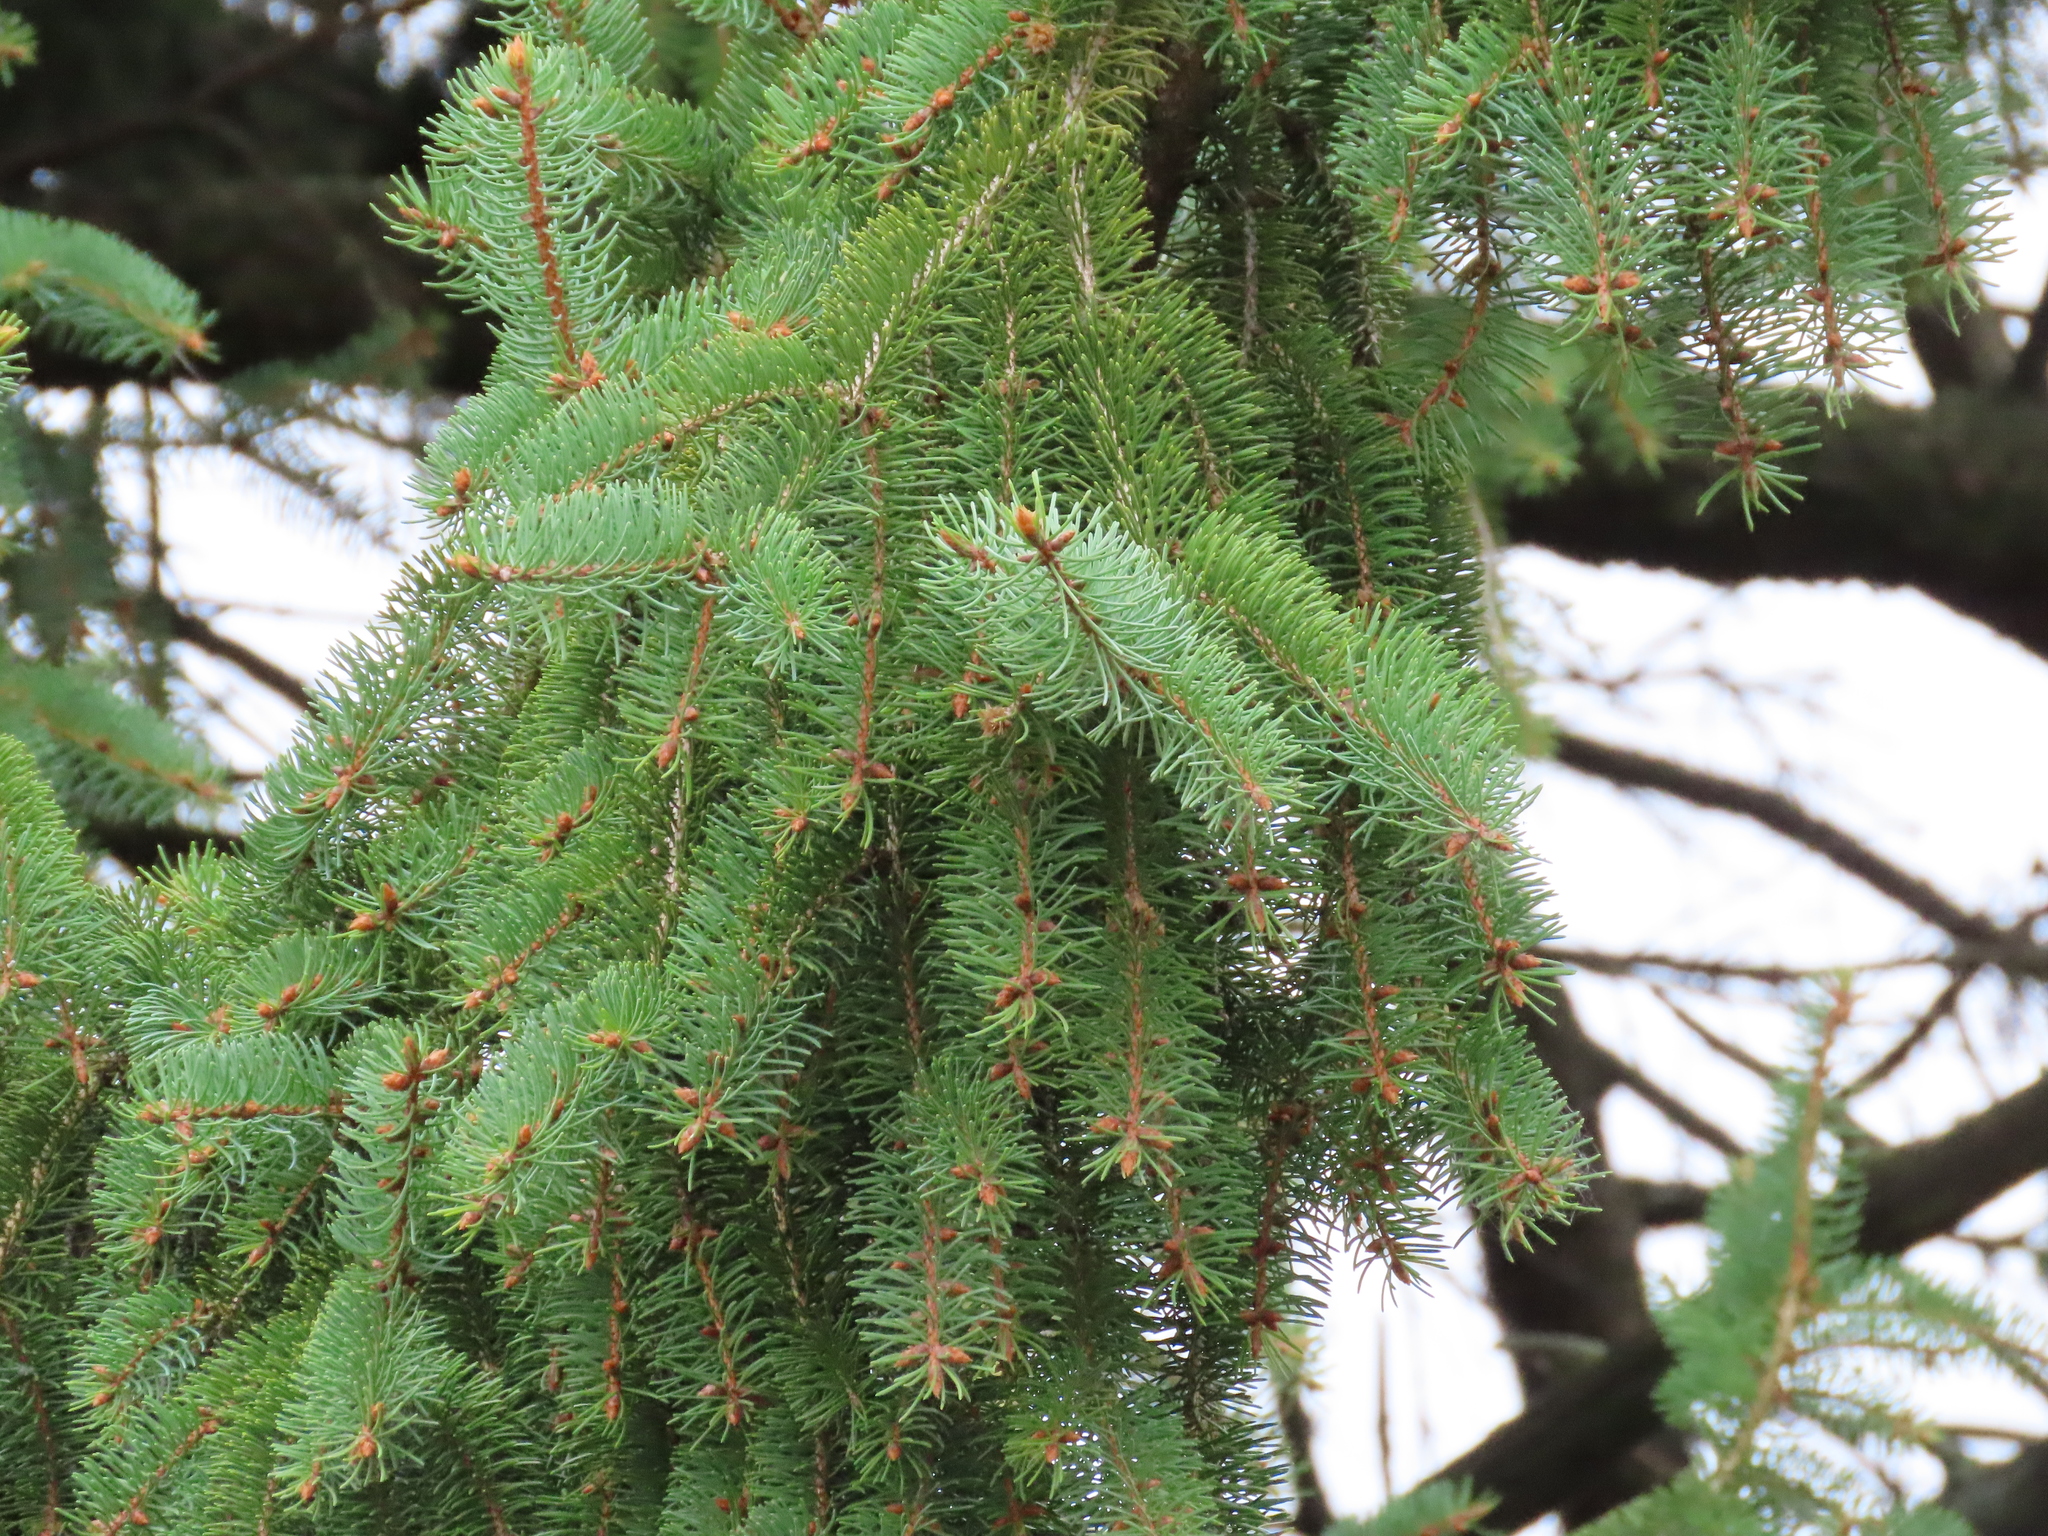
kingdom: Plantae
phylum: Tracheophyta
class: Pinopsida
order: Pinales
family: Pinaceae
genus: Picea
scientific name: Picea abies
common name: Norway spruce
